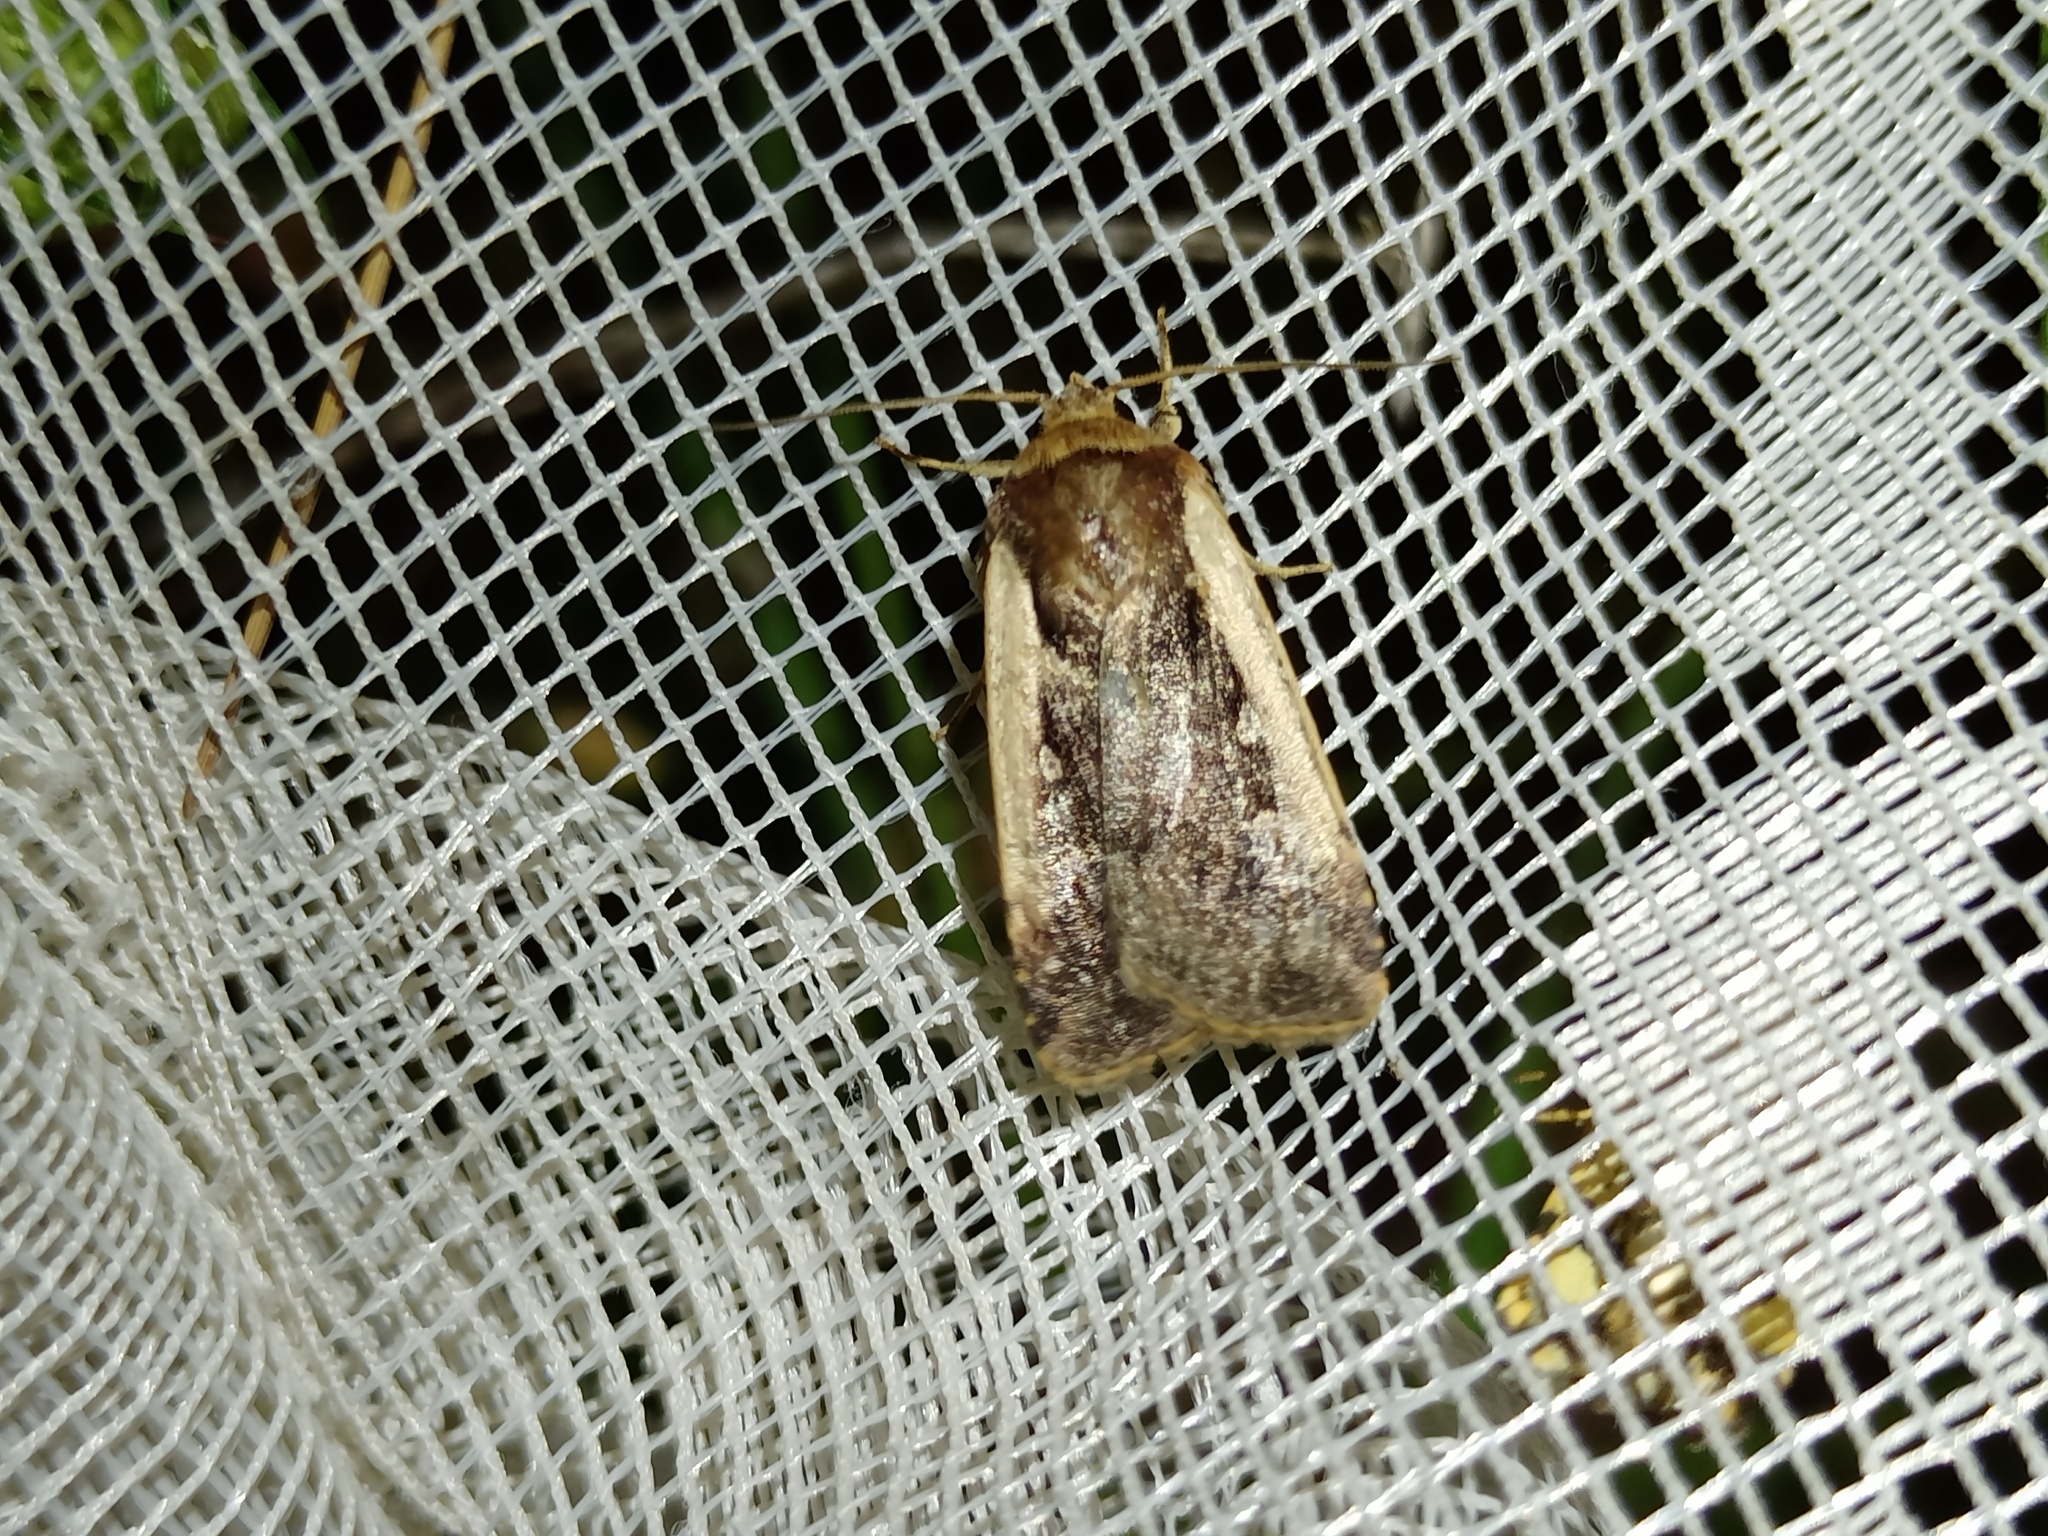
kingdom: Animalia
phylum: Arthropoda
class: Insecta
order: Lepidoptera
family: Noctuidae
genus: Ochropleura
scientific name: Ochropleura plecta
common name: Flame shoulder
